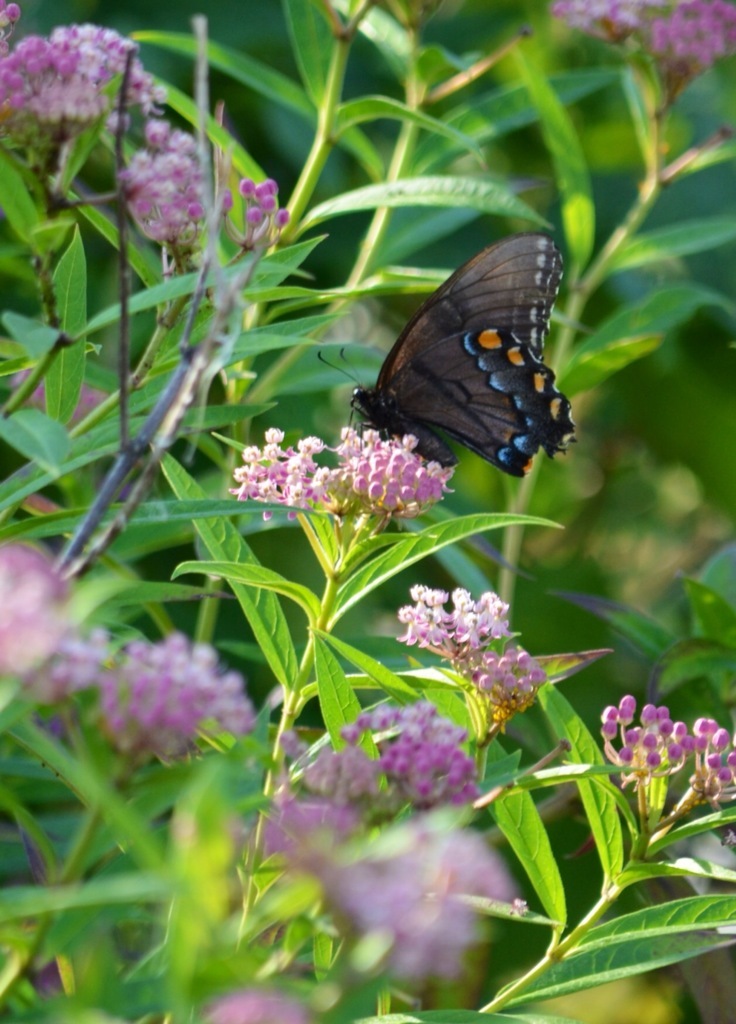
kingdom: Animalia
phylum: Arthropoda
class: Insecta
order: Lepidoptera
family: Papilionidae
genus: Papilio
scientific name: Papilio glaucus
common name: Tiger swallowtail
